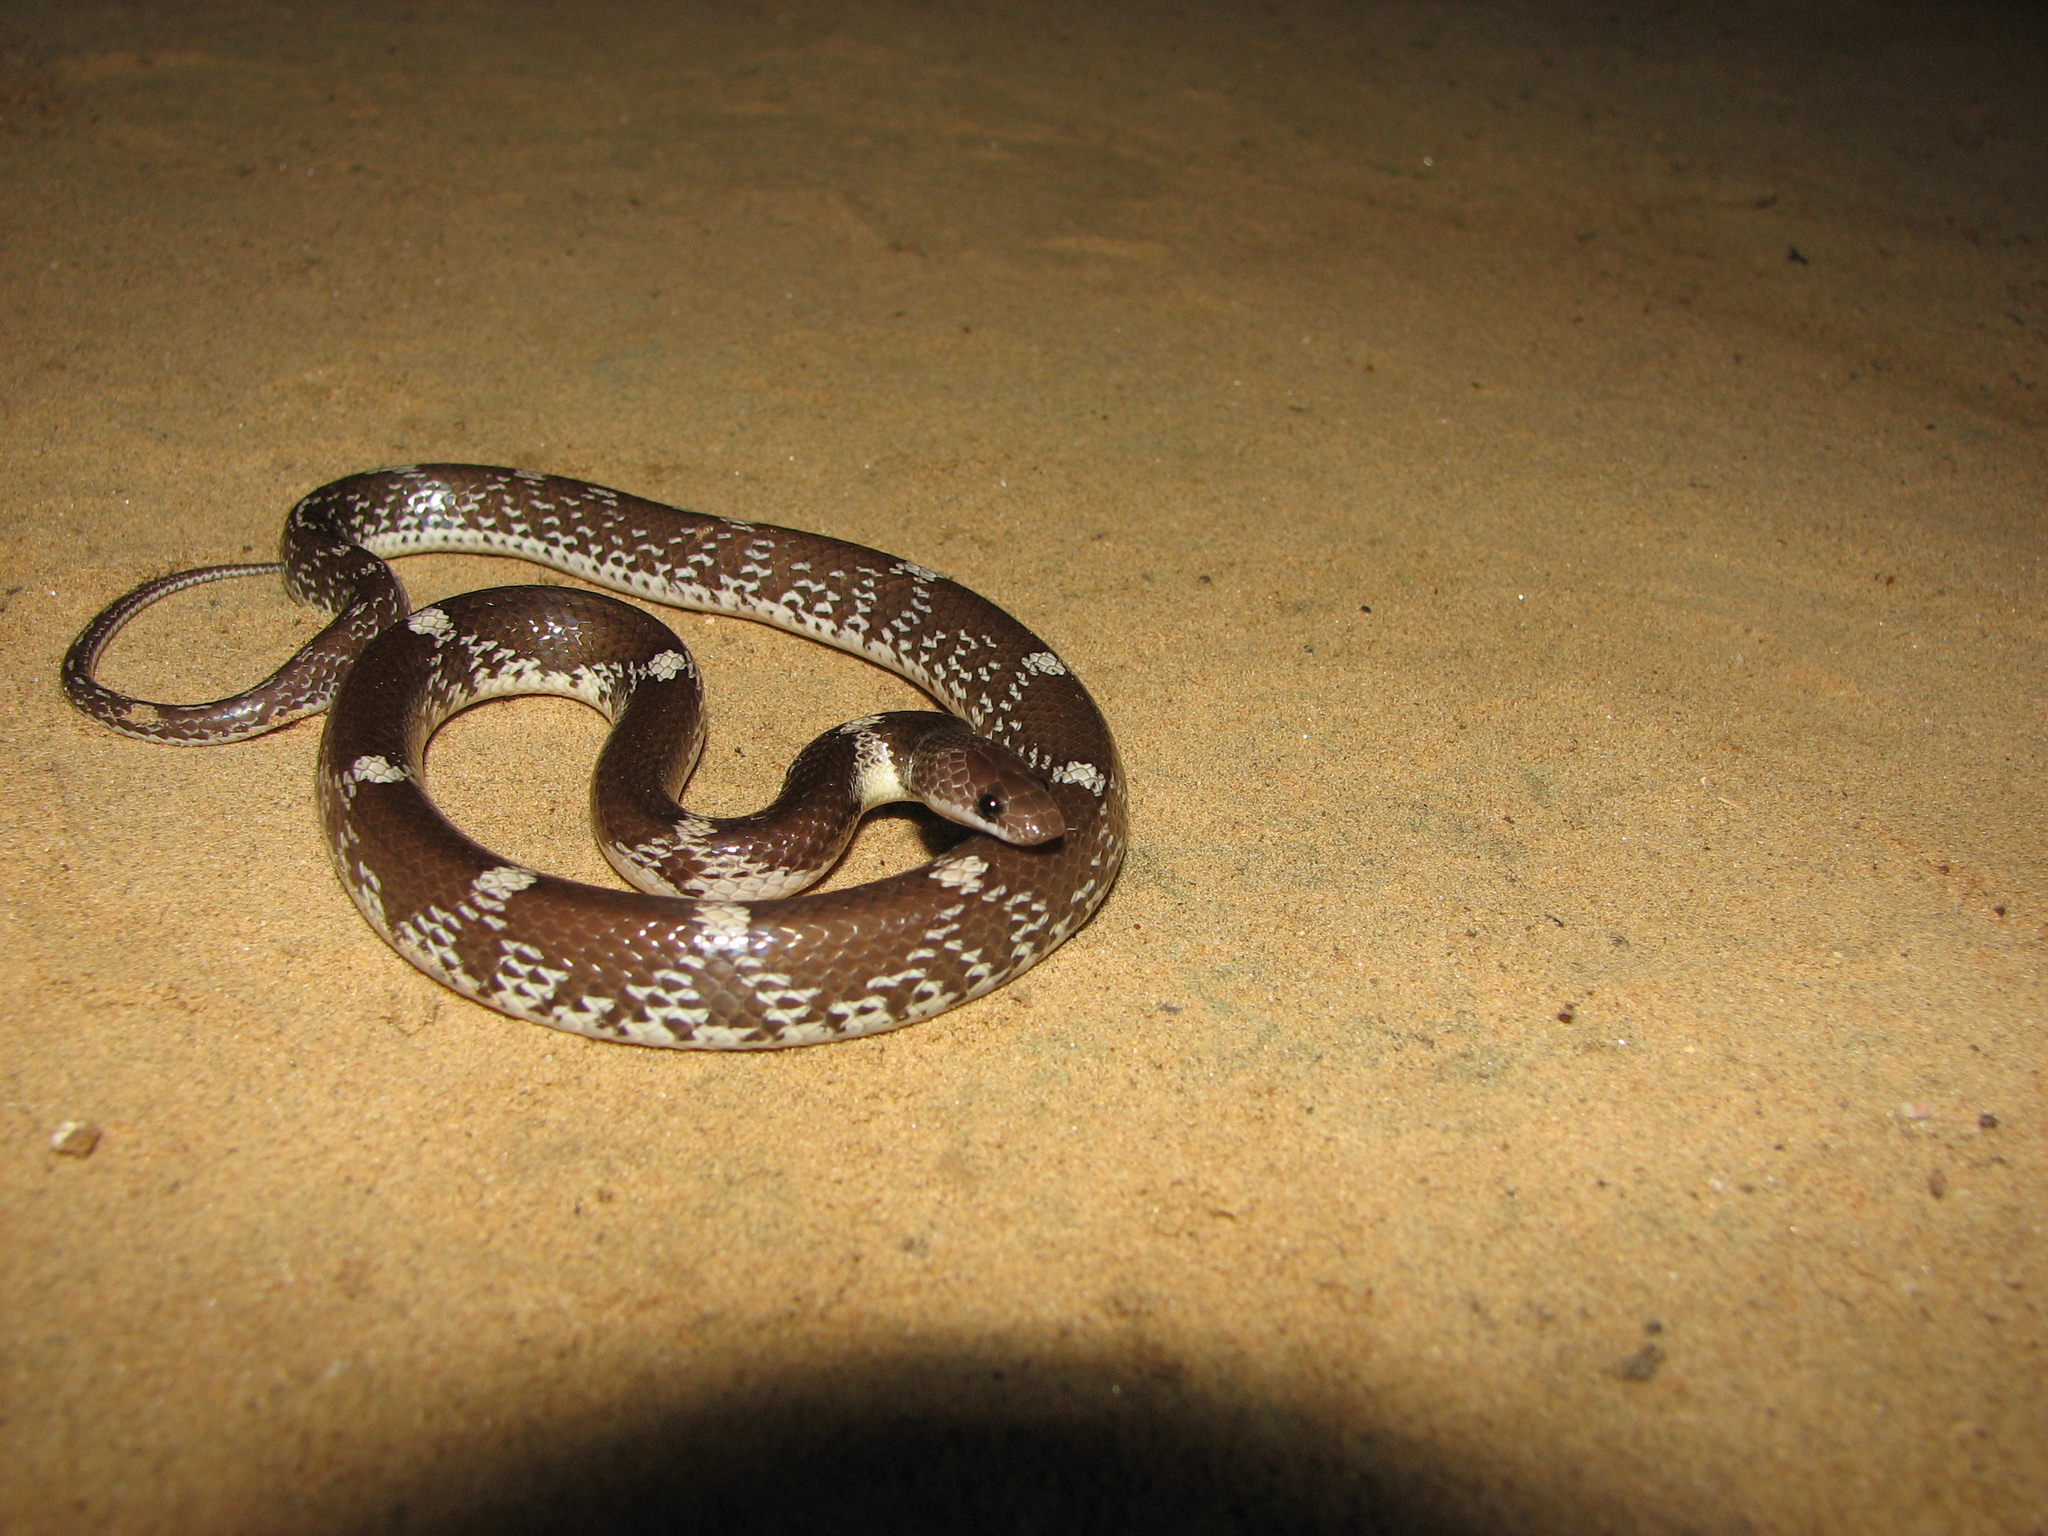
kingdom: Animalia
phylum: Chordata
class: Squamata
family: Colubridae
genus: Lycodon
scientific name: Lycodon striatus
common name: Barred wolf snake
